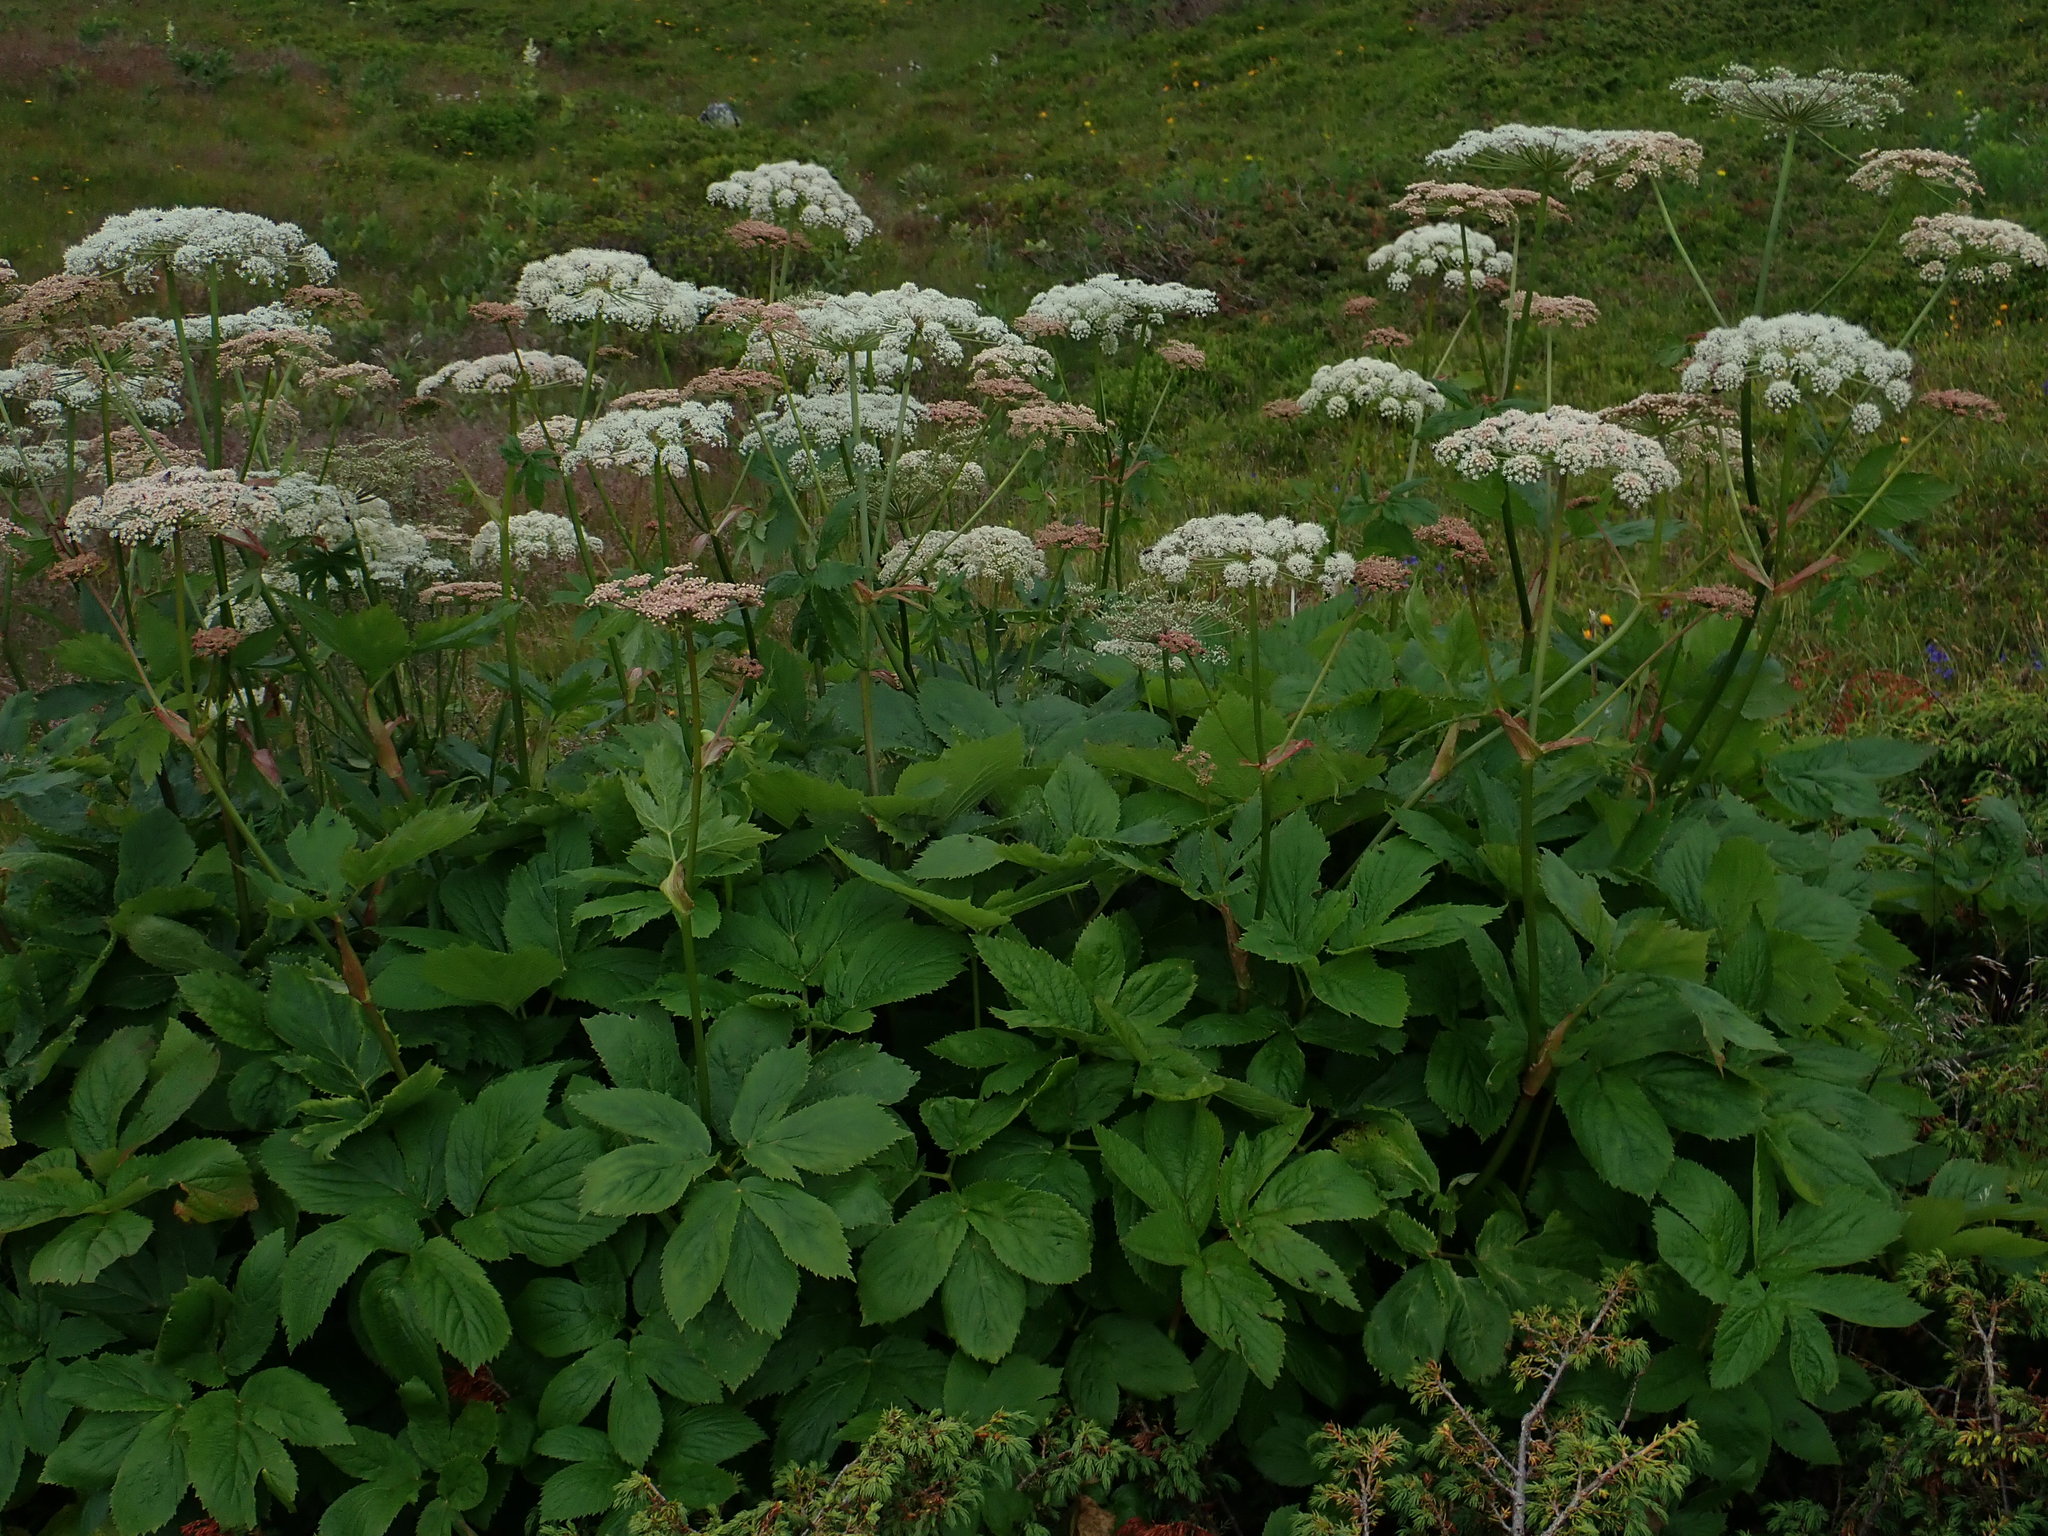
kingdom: Plantae
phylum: Tracheophyta
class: Magnoliopsida
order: Apiales
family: Apiaceae
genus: Imperatoria
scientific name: Imperatoria ostruthium
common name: Masterwort
